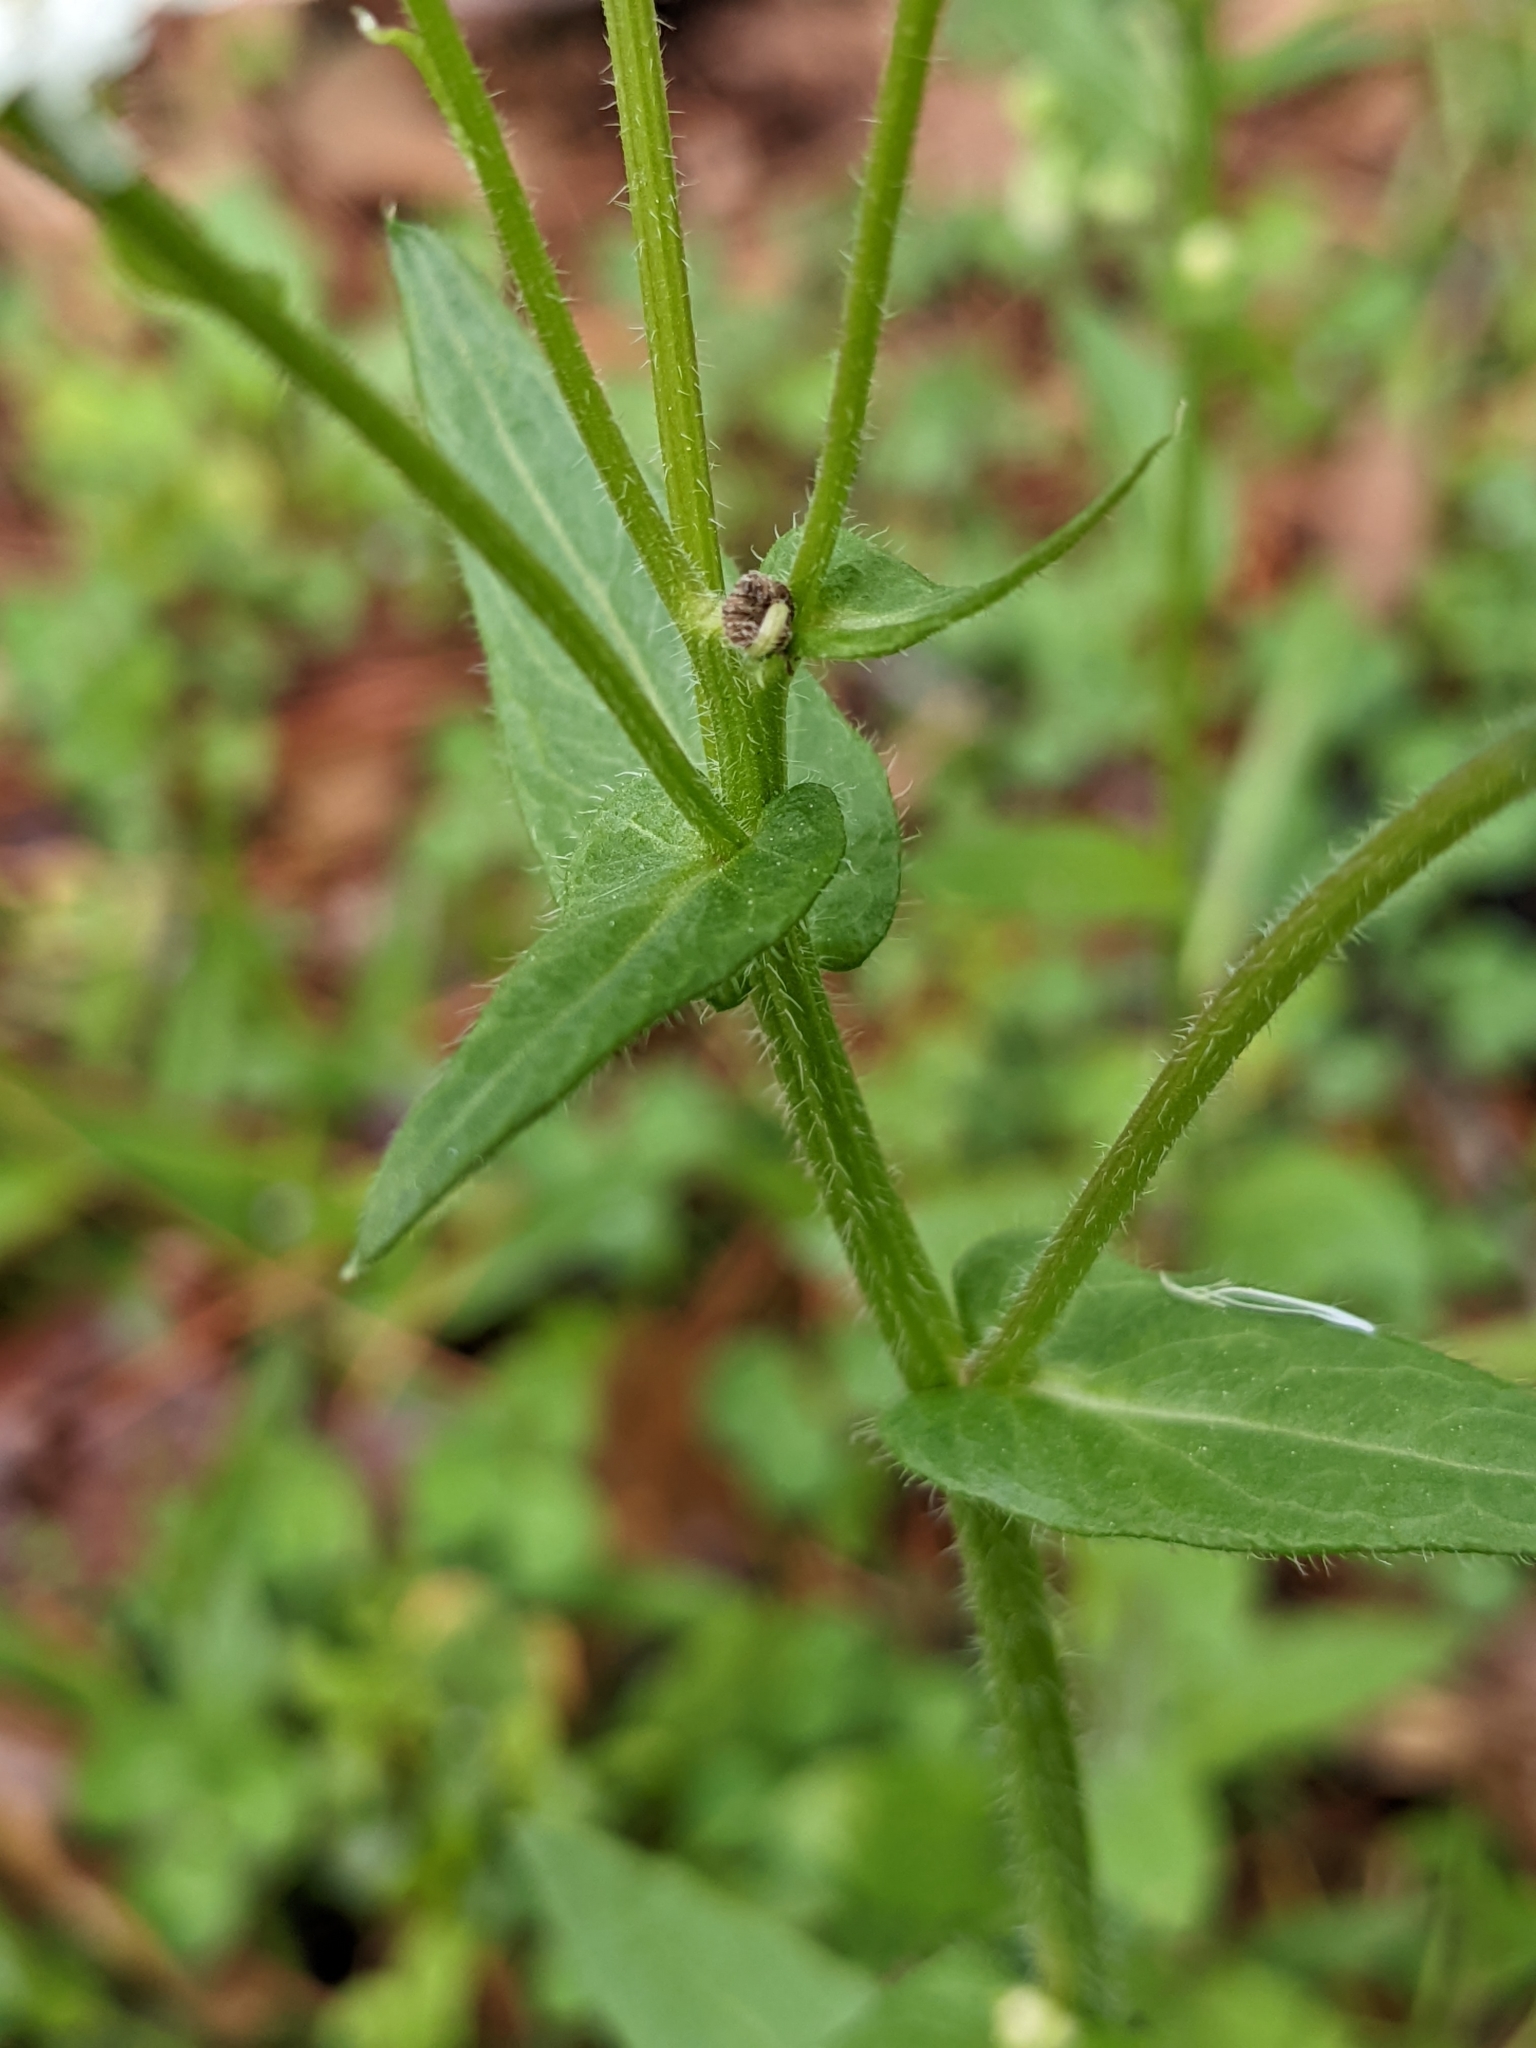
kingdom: Plantae
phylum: Tracheophyta
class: Magnoliopsida
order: Asterales
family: Asteraceae
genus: Erigeron
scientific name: Erigeron philadelphicus
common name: Robin's-plantain
